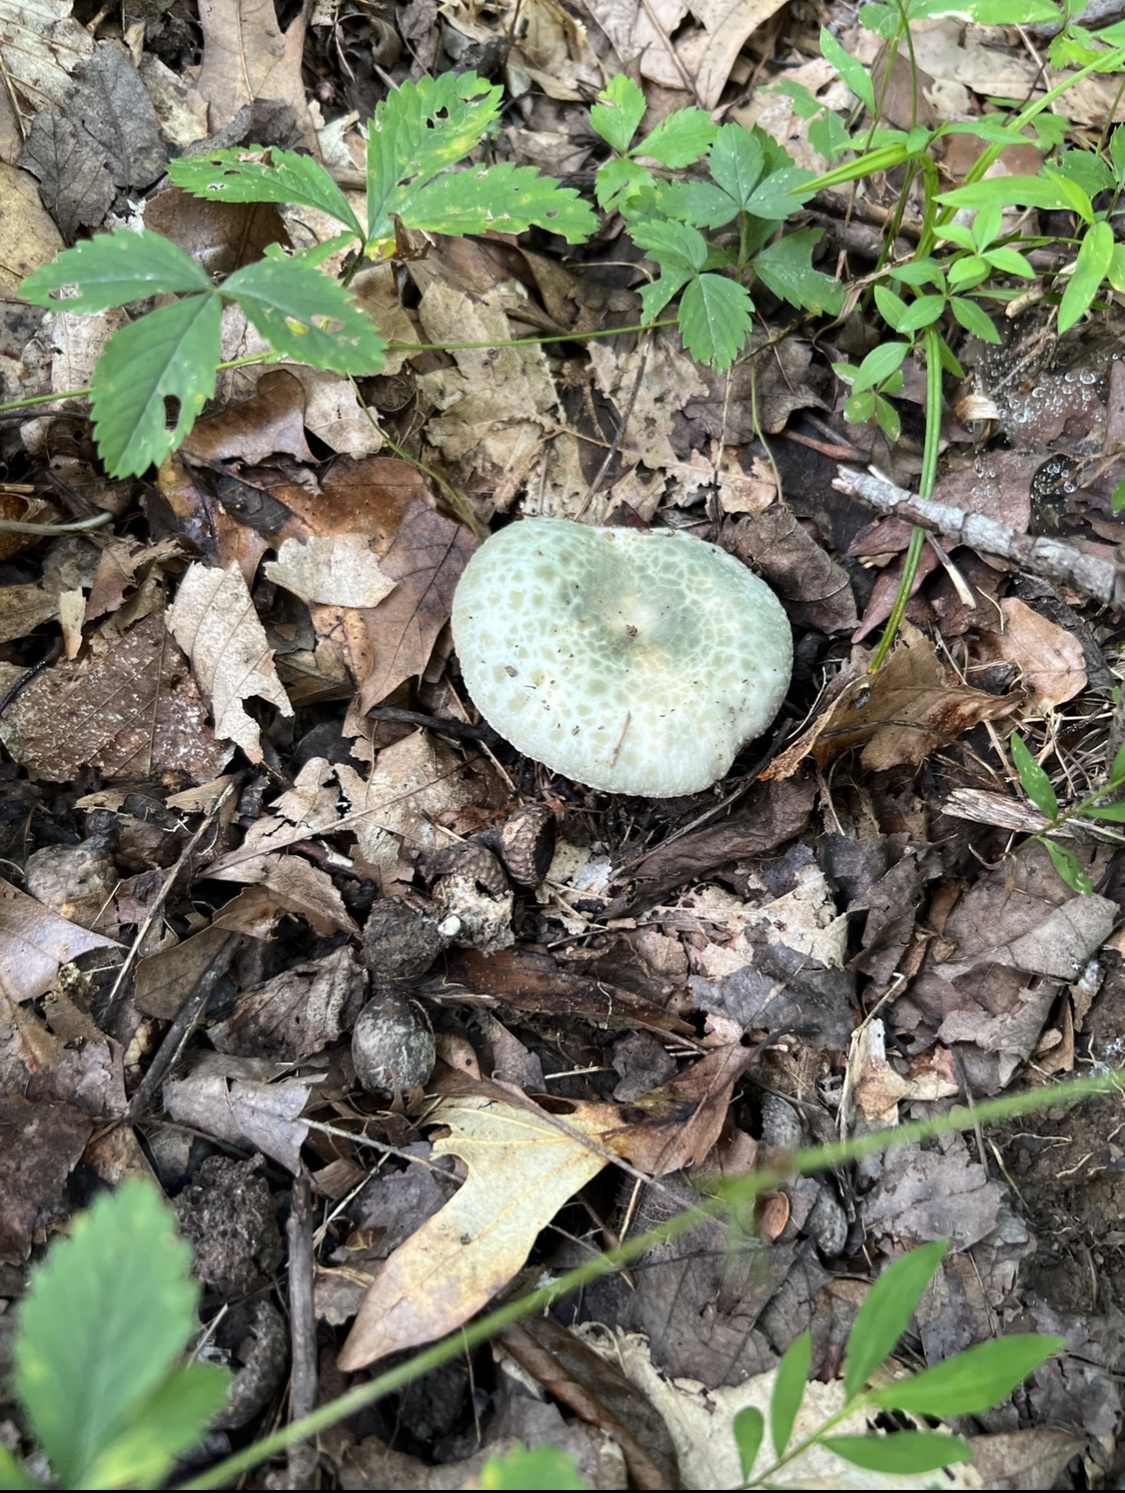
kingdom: Fungi
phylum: Basidiomycota
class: Agaricomycetes
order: Russulales
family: Russulaceae
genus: Russula
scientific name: Russula parvovirescens
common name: Blue-green cracking russula
